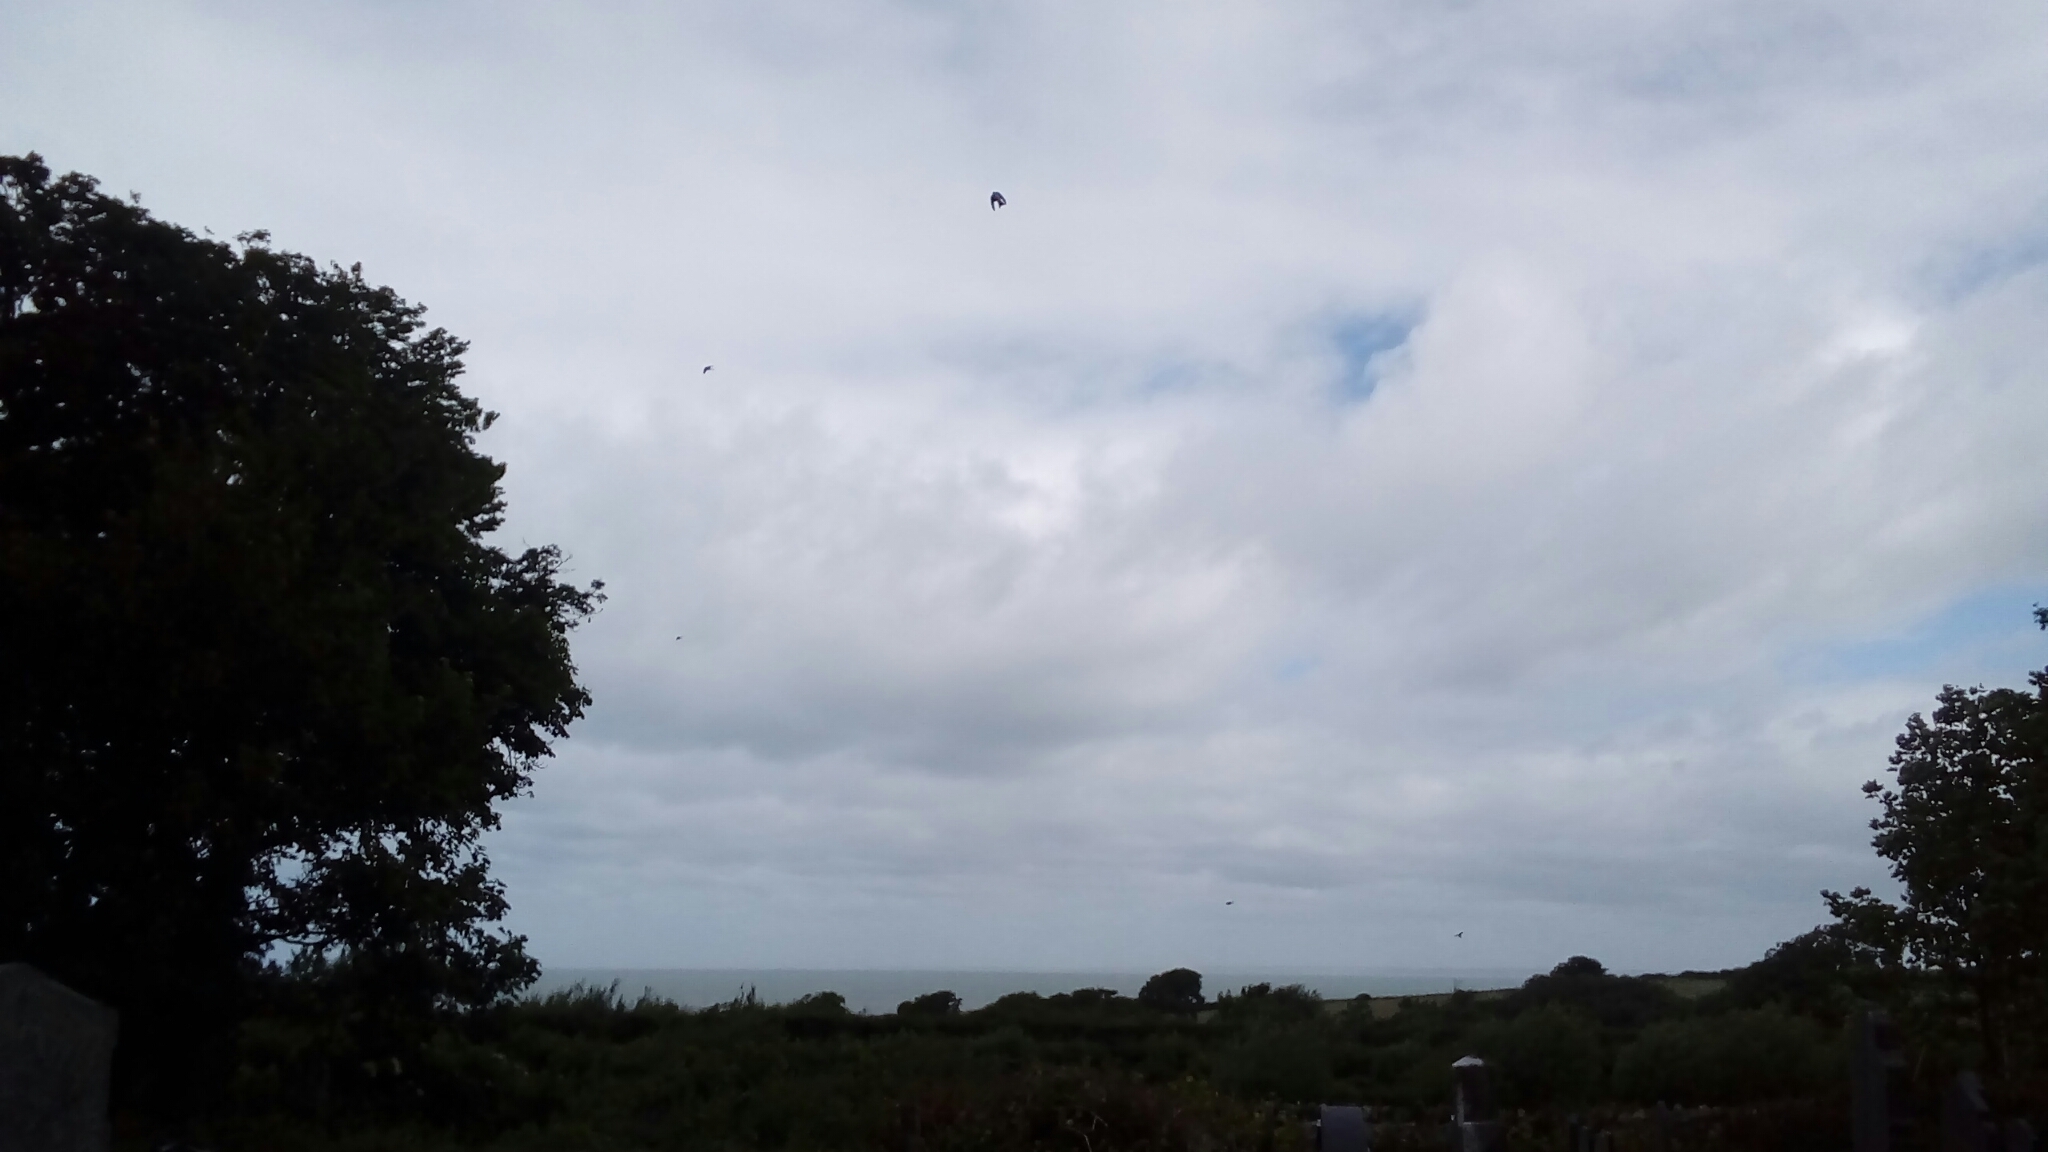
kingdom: Animalia
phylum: Chordata
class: Aves
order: Passeriformes
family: Hirundinidae
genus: Delichon
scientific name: Delichon urbicum
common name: Common house martin
